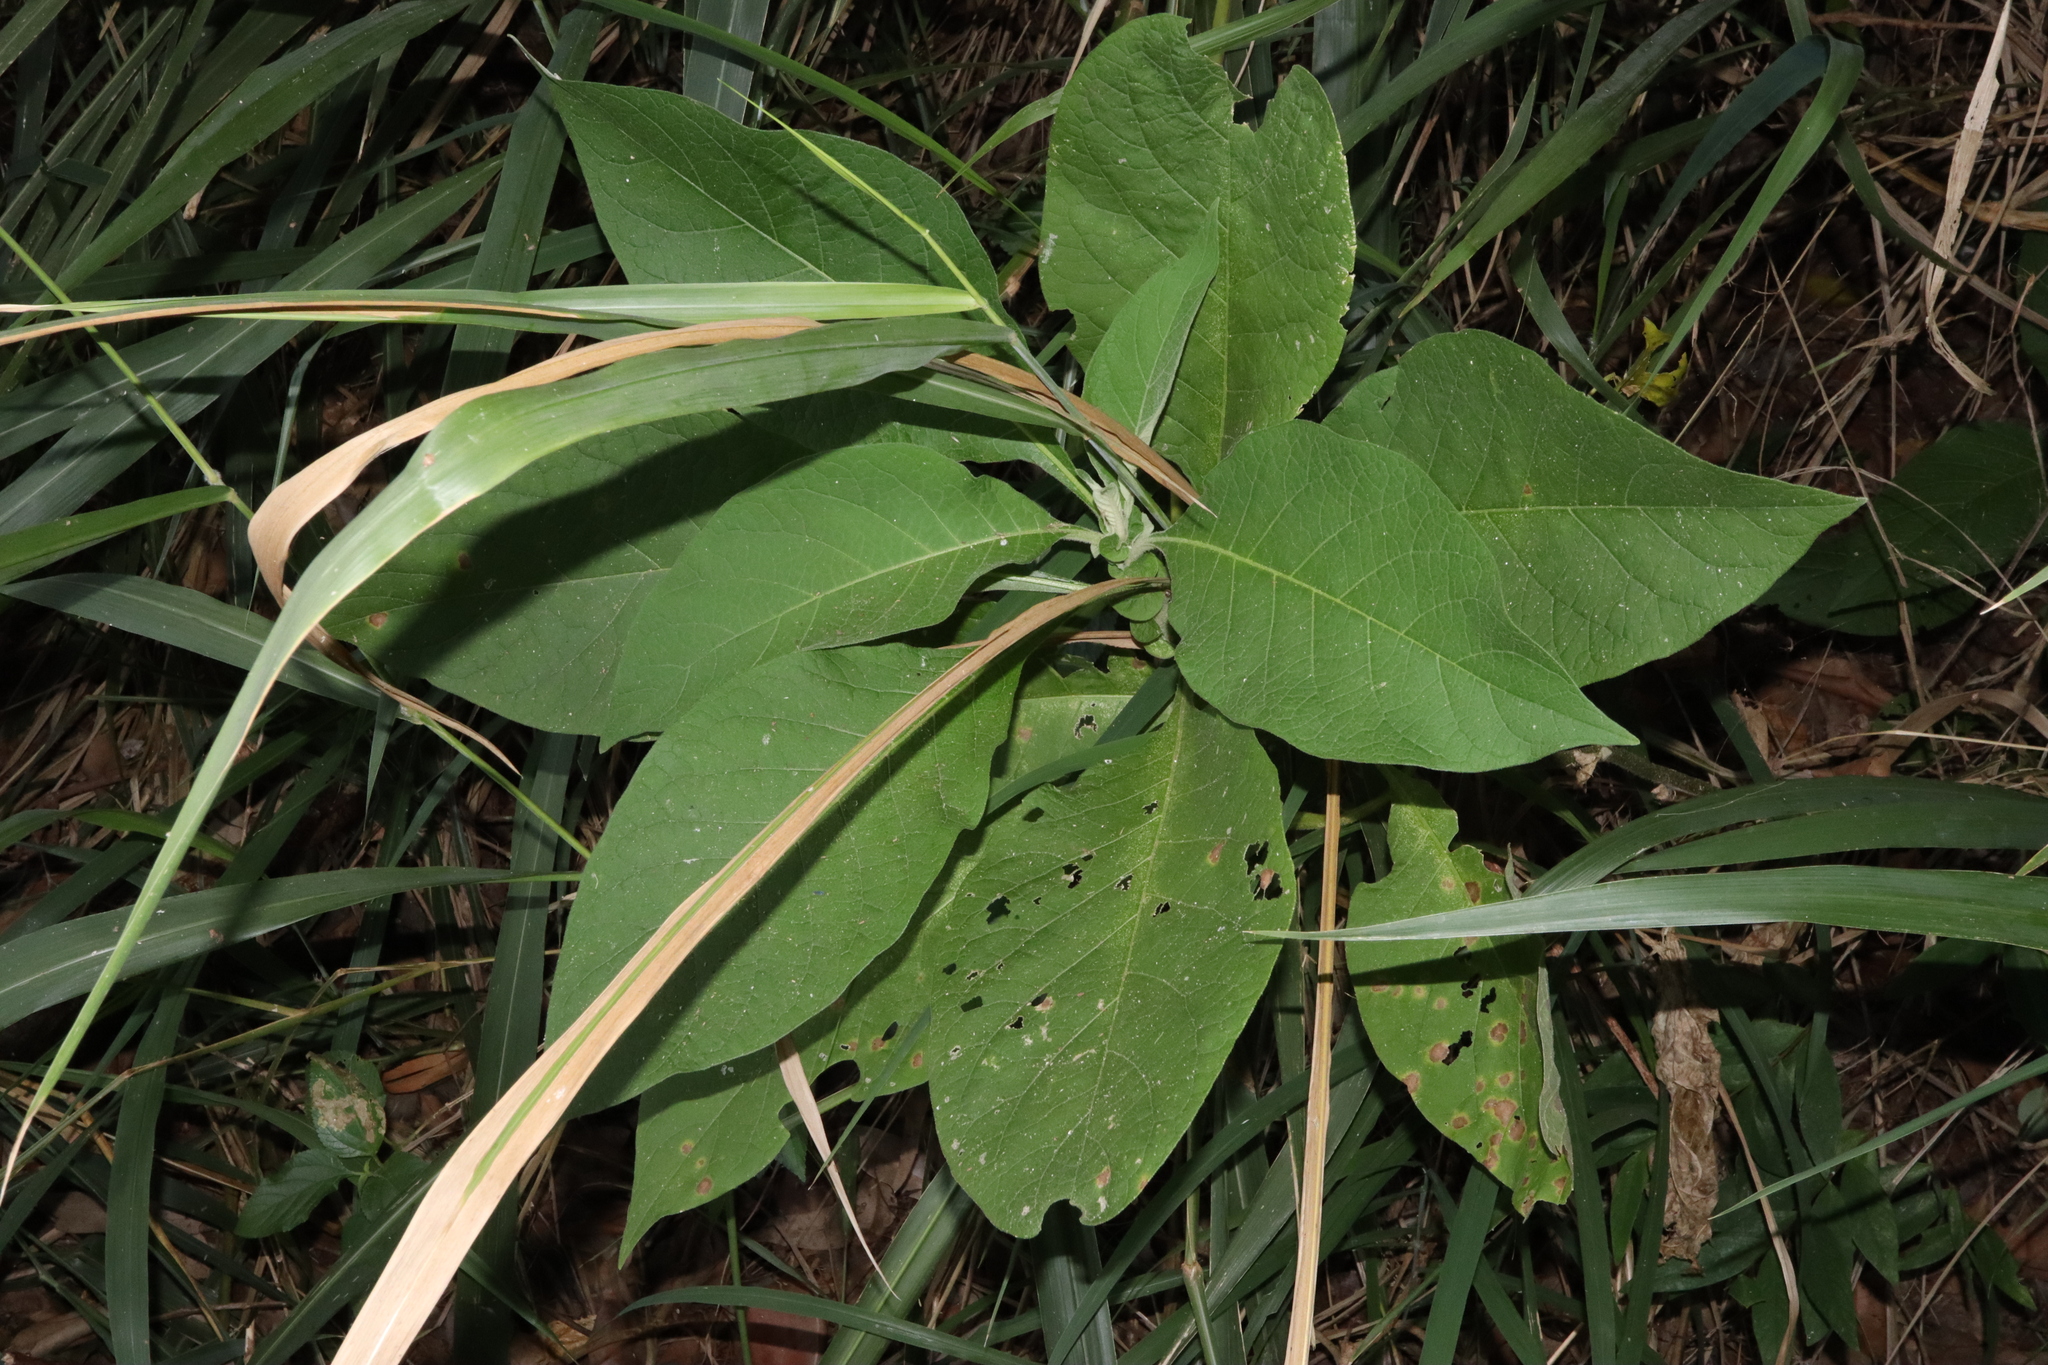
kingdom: Plantae
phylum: Tracheophyta
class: Magnoliopsida
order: Solanales
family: Solanaceae
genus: Solanum
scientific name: Solanum mauritianum
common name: Earleaf nightshade
